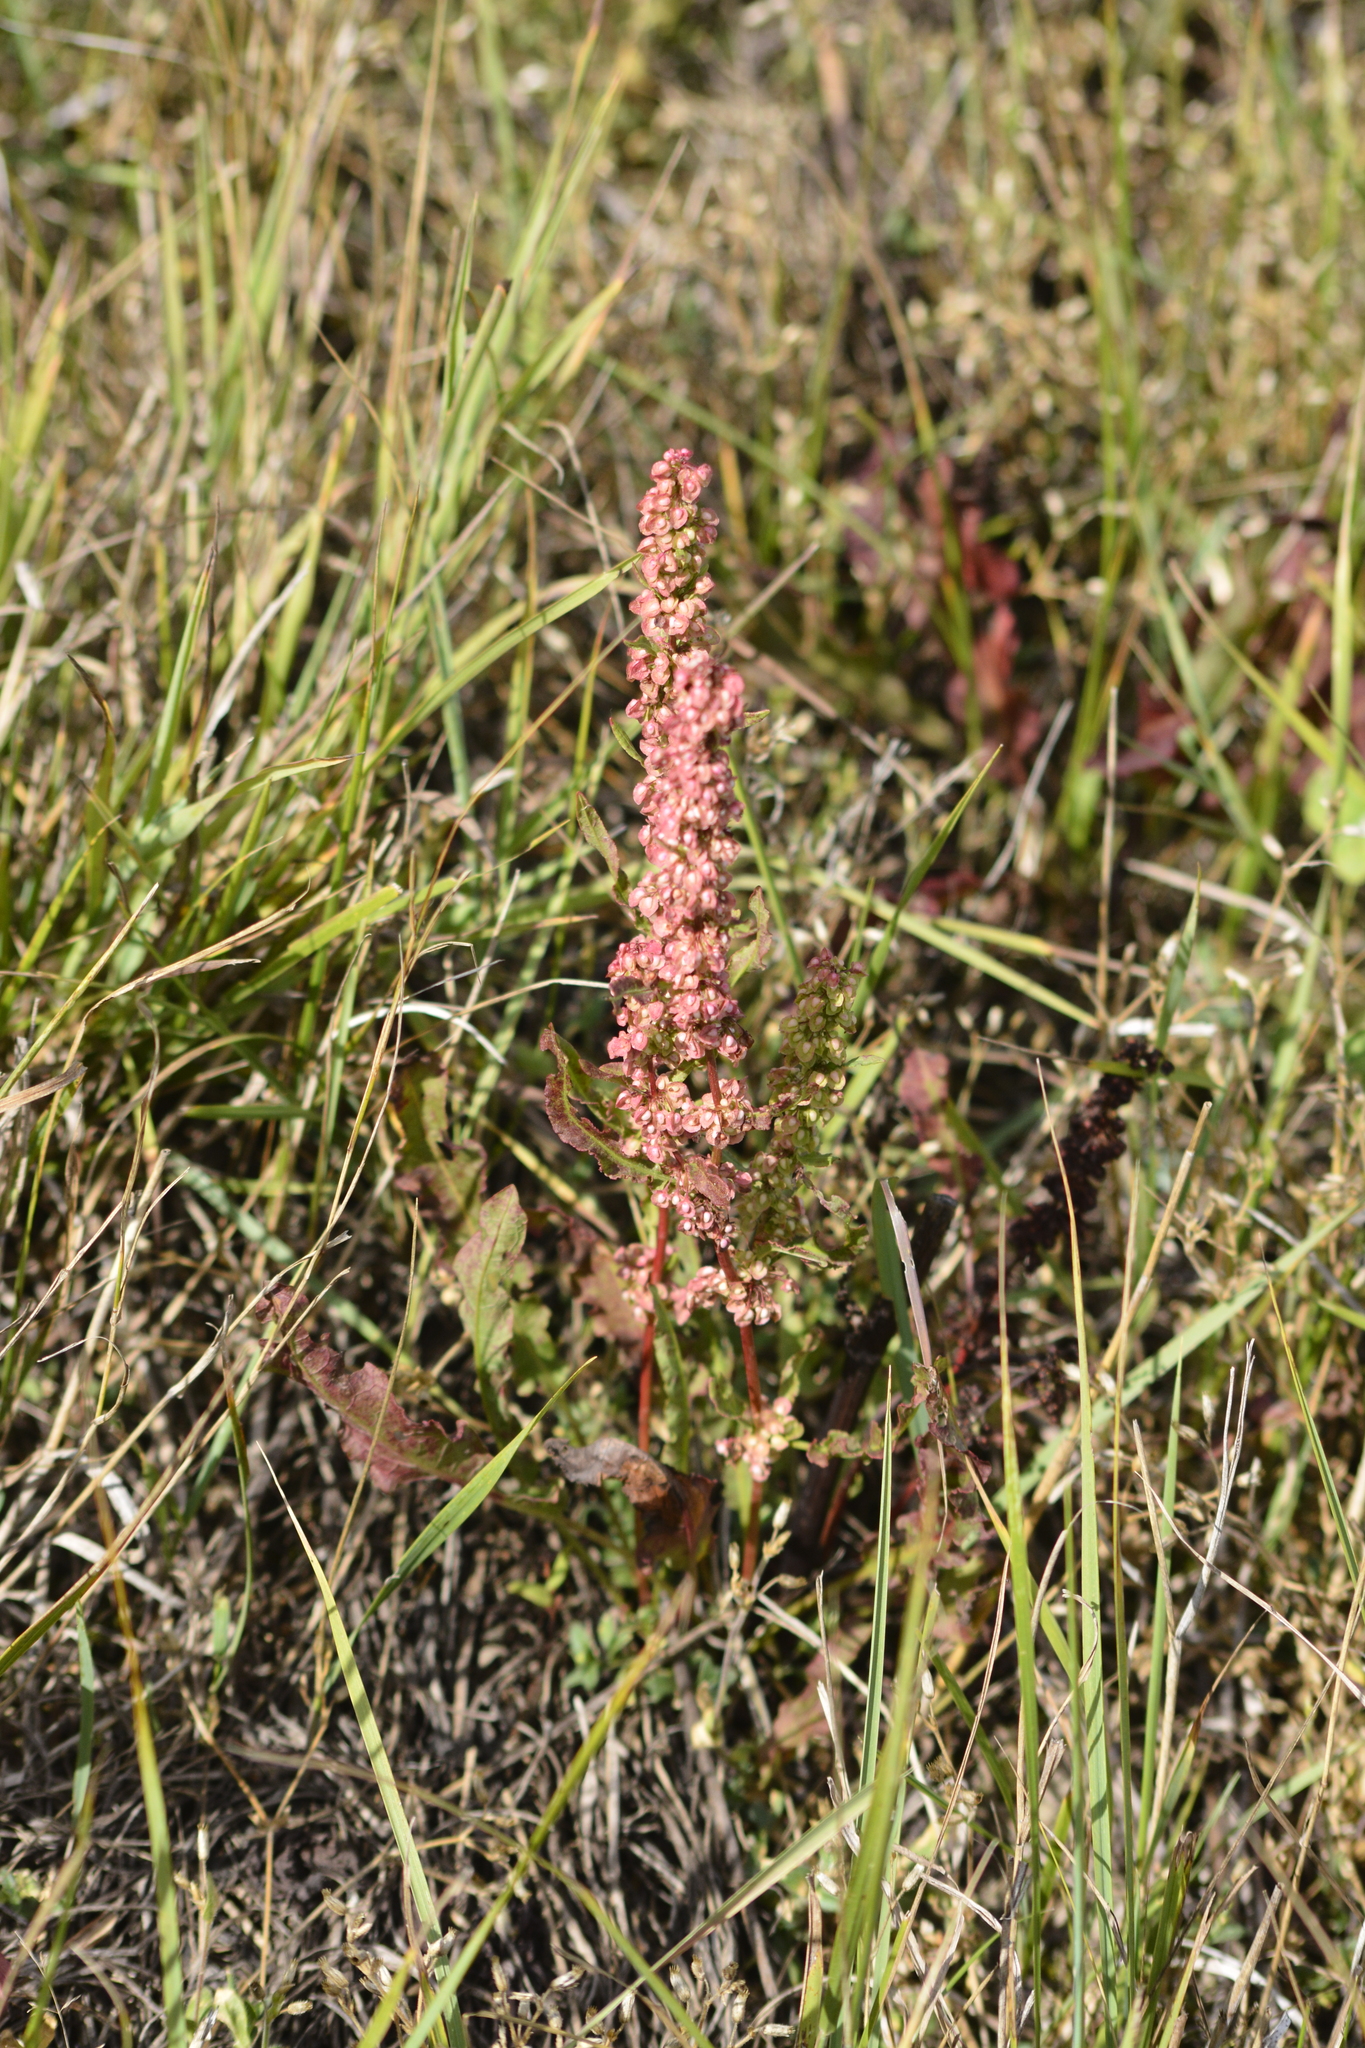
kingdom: Plantae
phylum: Tracheophyta
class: Magnoliopsida
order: Caryophyllales
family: Polygonaceae
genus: Rumex
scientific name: Rumex crispus
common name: Curled dock
